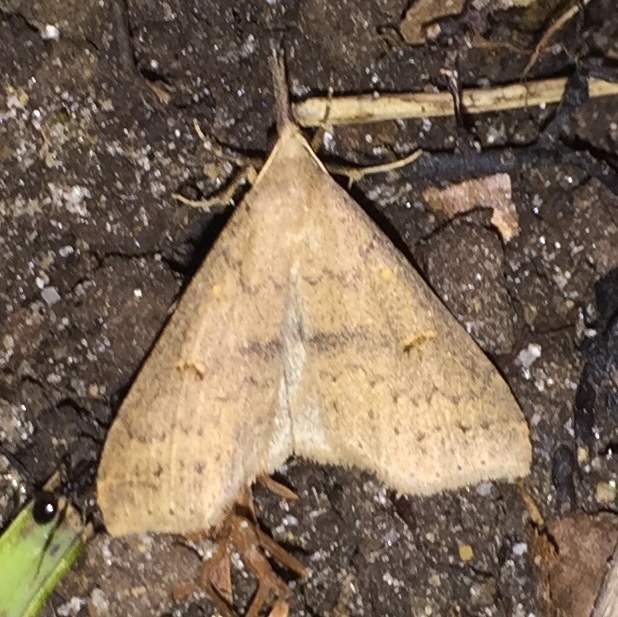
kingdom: Animalia
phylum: Arthropoda
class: Insecta
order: Lepidoptera
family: Erebidae
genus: Renia
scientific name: Renia adspergillus
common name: Speckled renia moth
